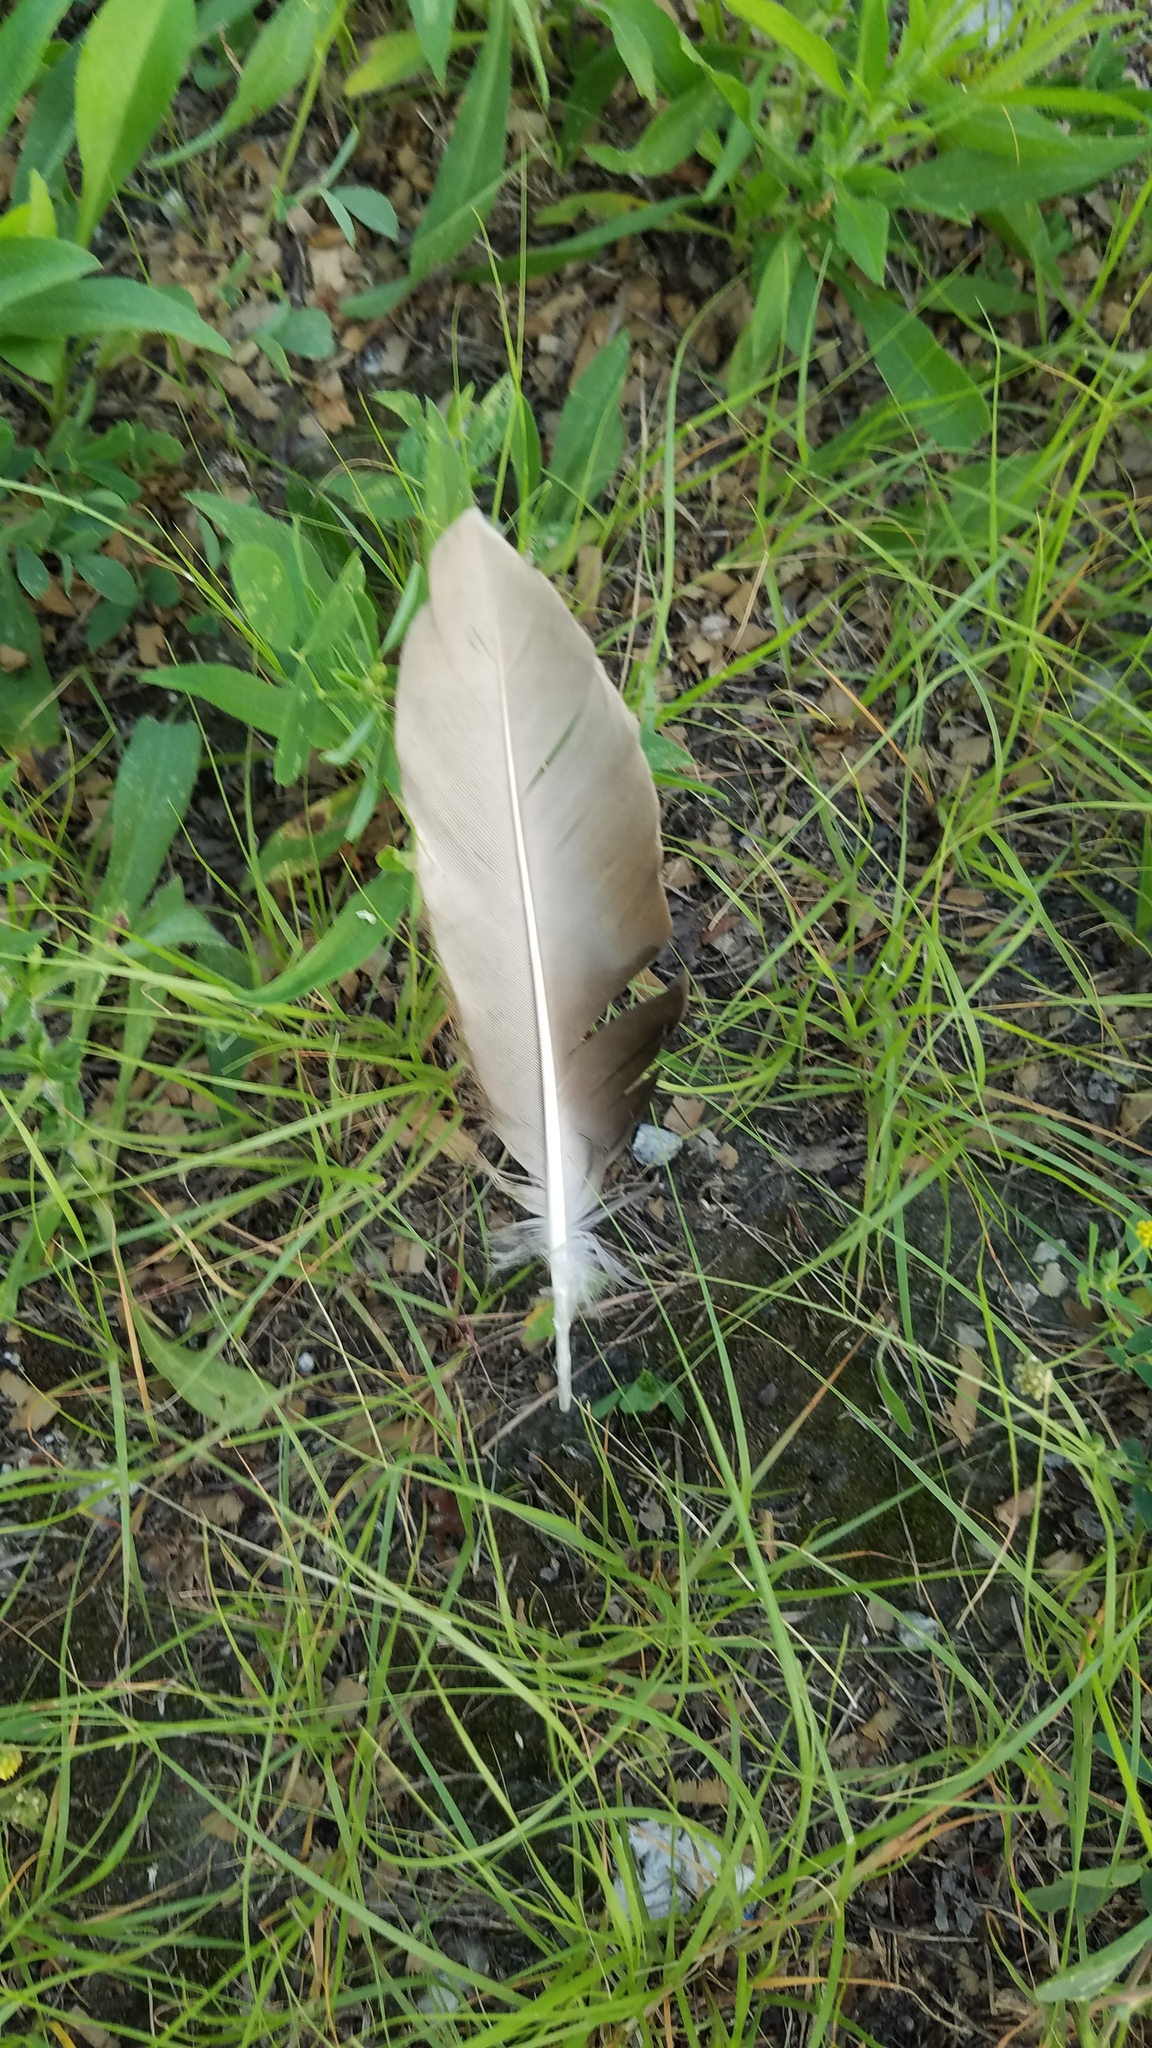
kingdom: Animalia
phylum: Chordata
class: Aves
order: Anseriformes
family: Anatidae
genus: Anas
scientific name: Anas platyrhynchos
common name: Mallard
